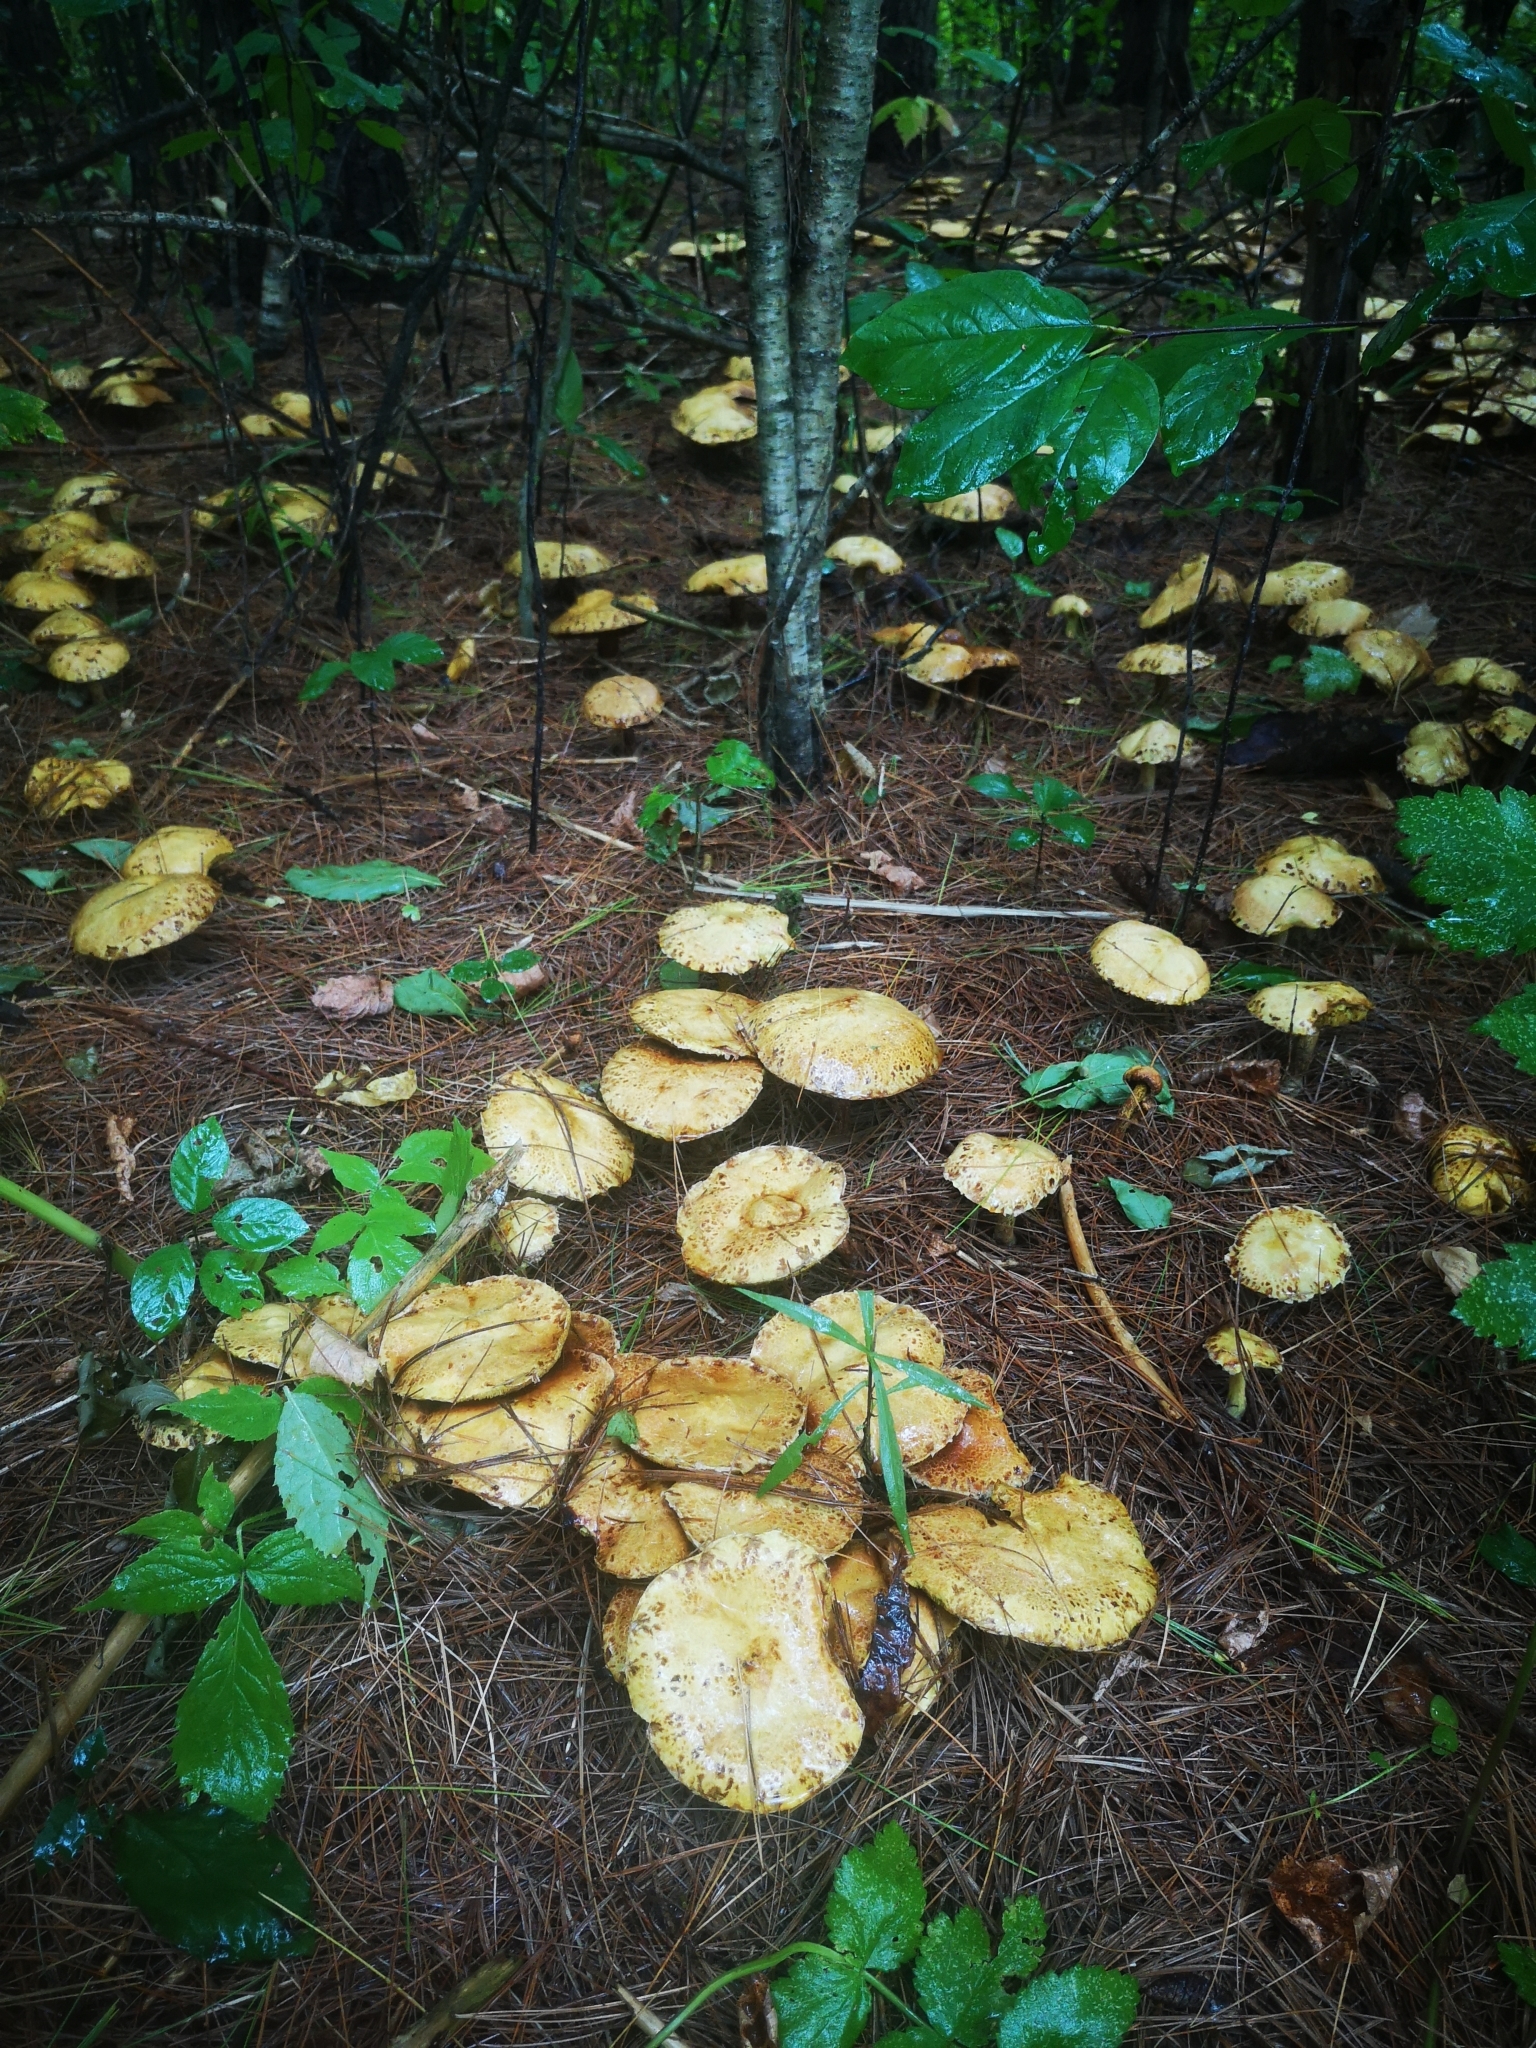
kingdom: Fungi
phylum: Basidiomycota
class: Agaricomycetes
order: Boletales
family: Suillaceae
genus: Suillus
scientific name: Suillus americanus
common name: Chicken fat mushroom
